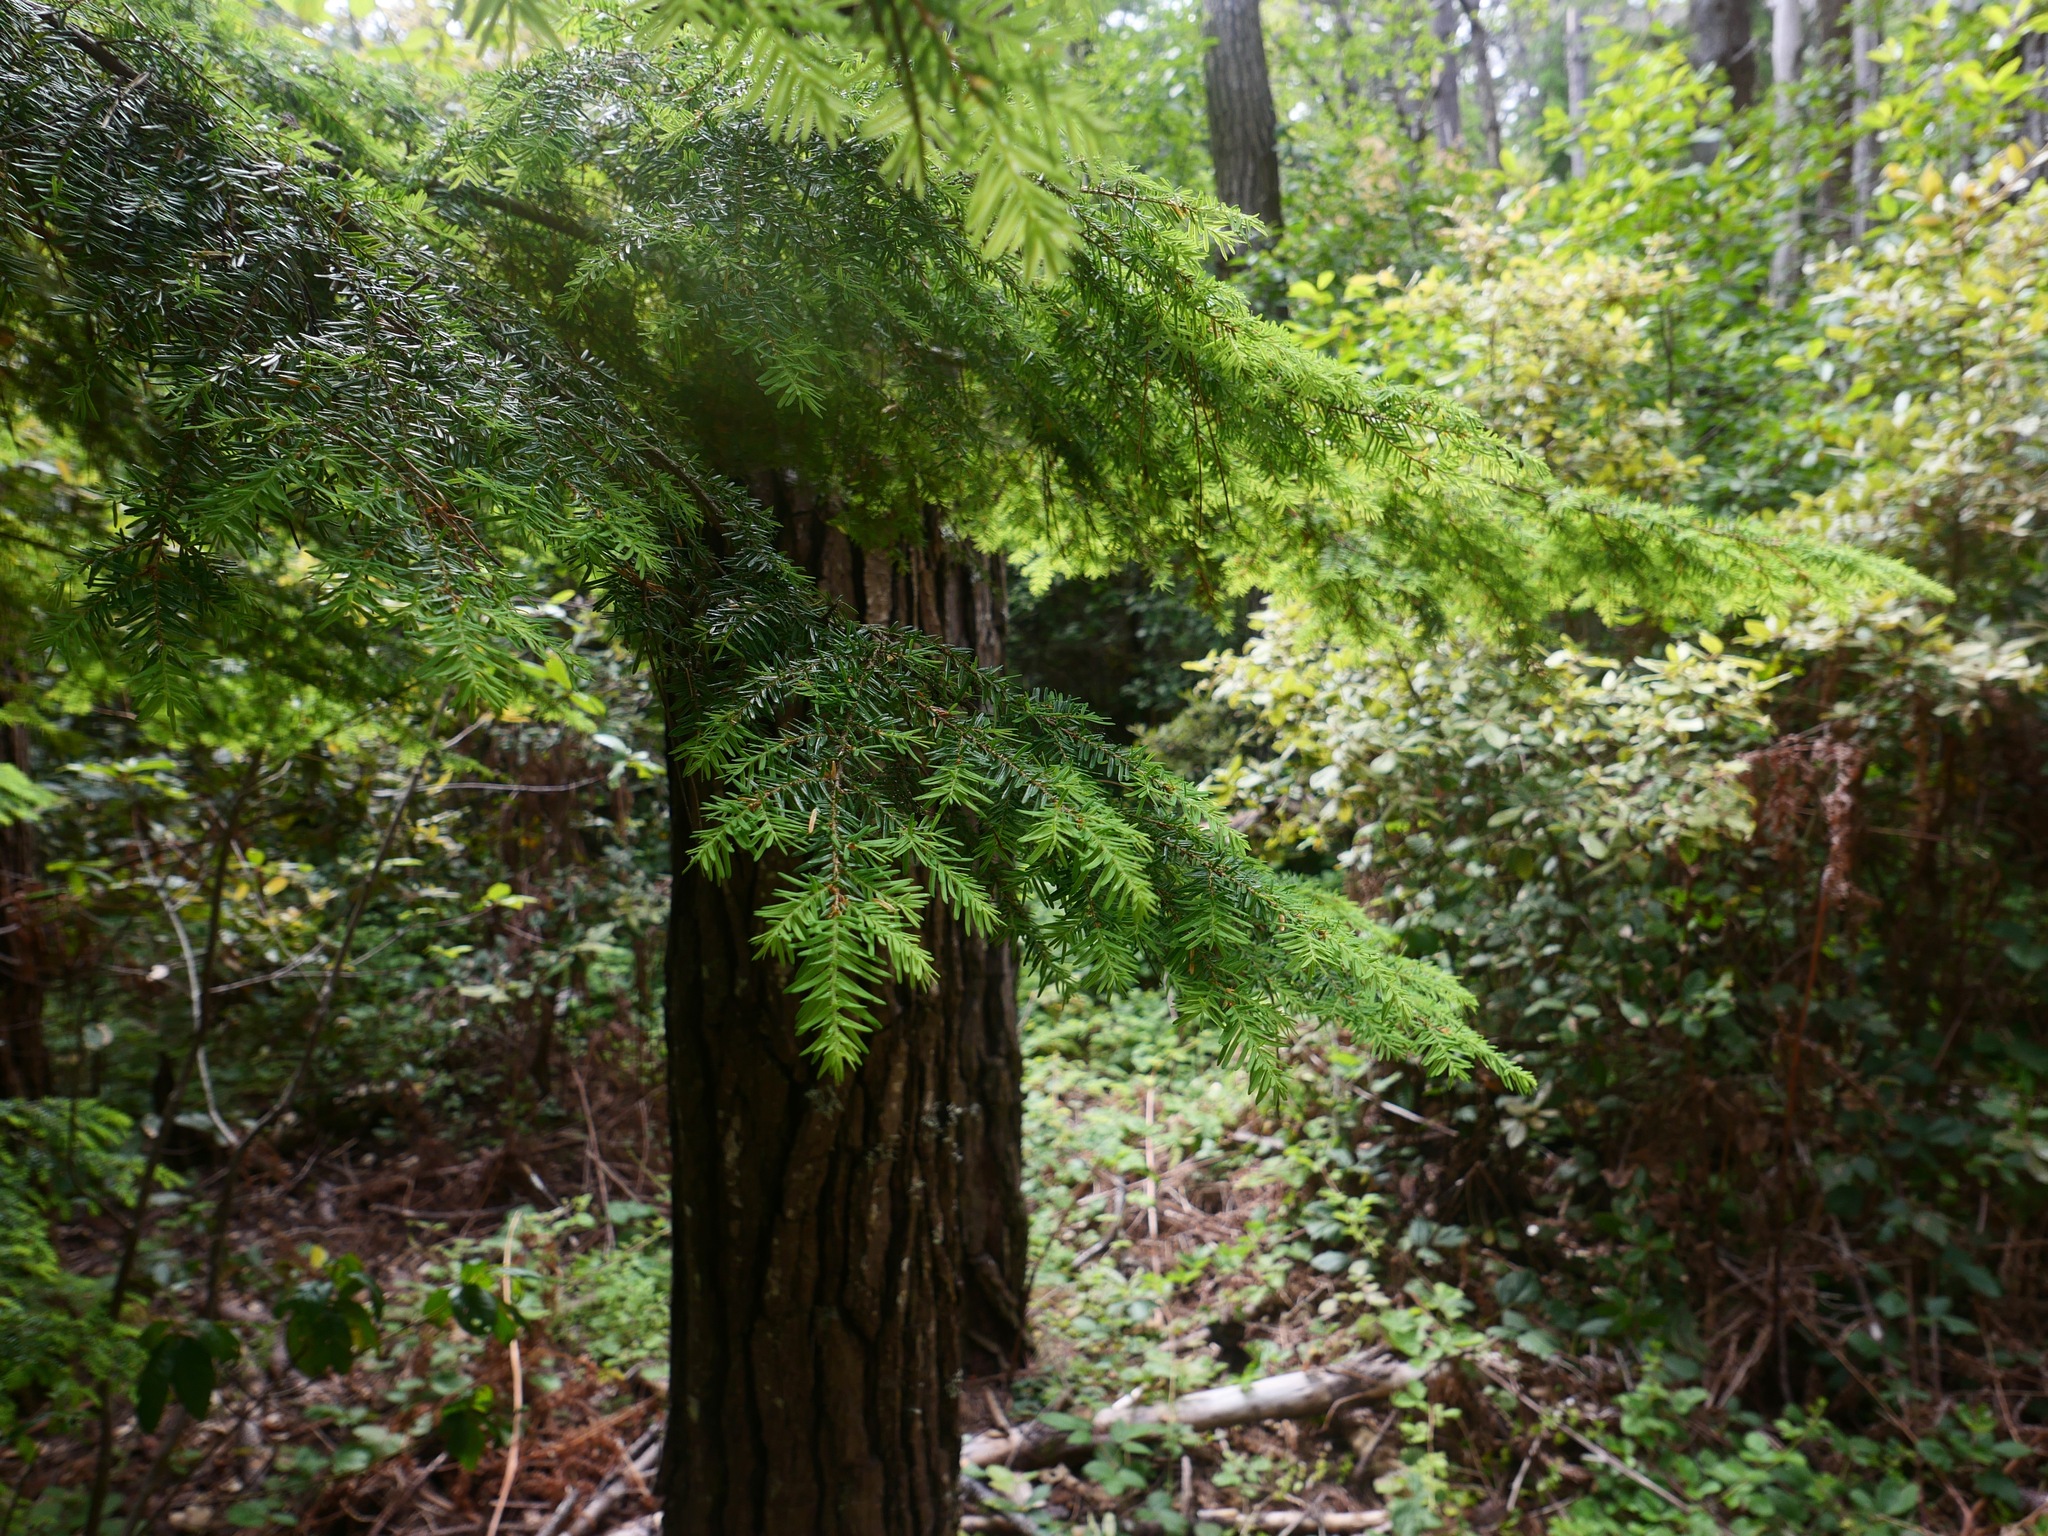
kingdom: Plantae
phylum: Tracheophyta
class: Pinopsida
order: Pinales
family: Pinaceae
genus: Tsuga
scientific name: Tsuga heterophylla
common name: Western hemlock
